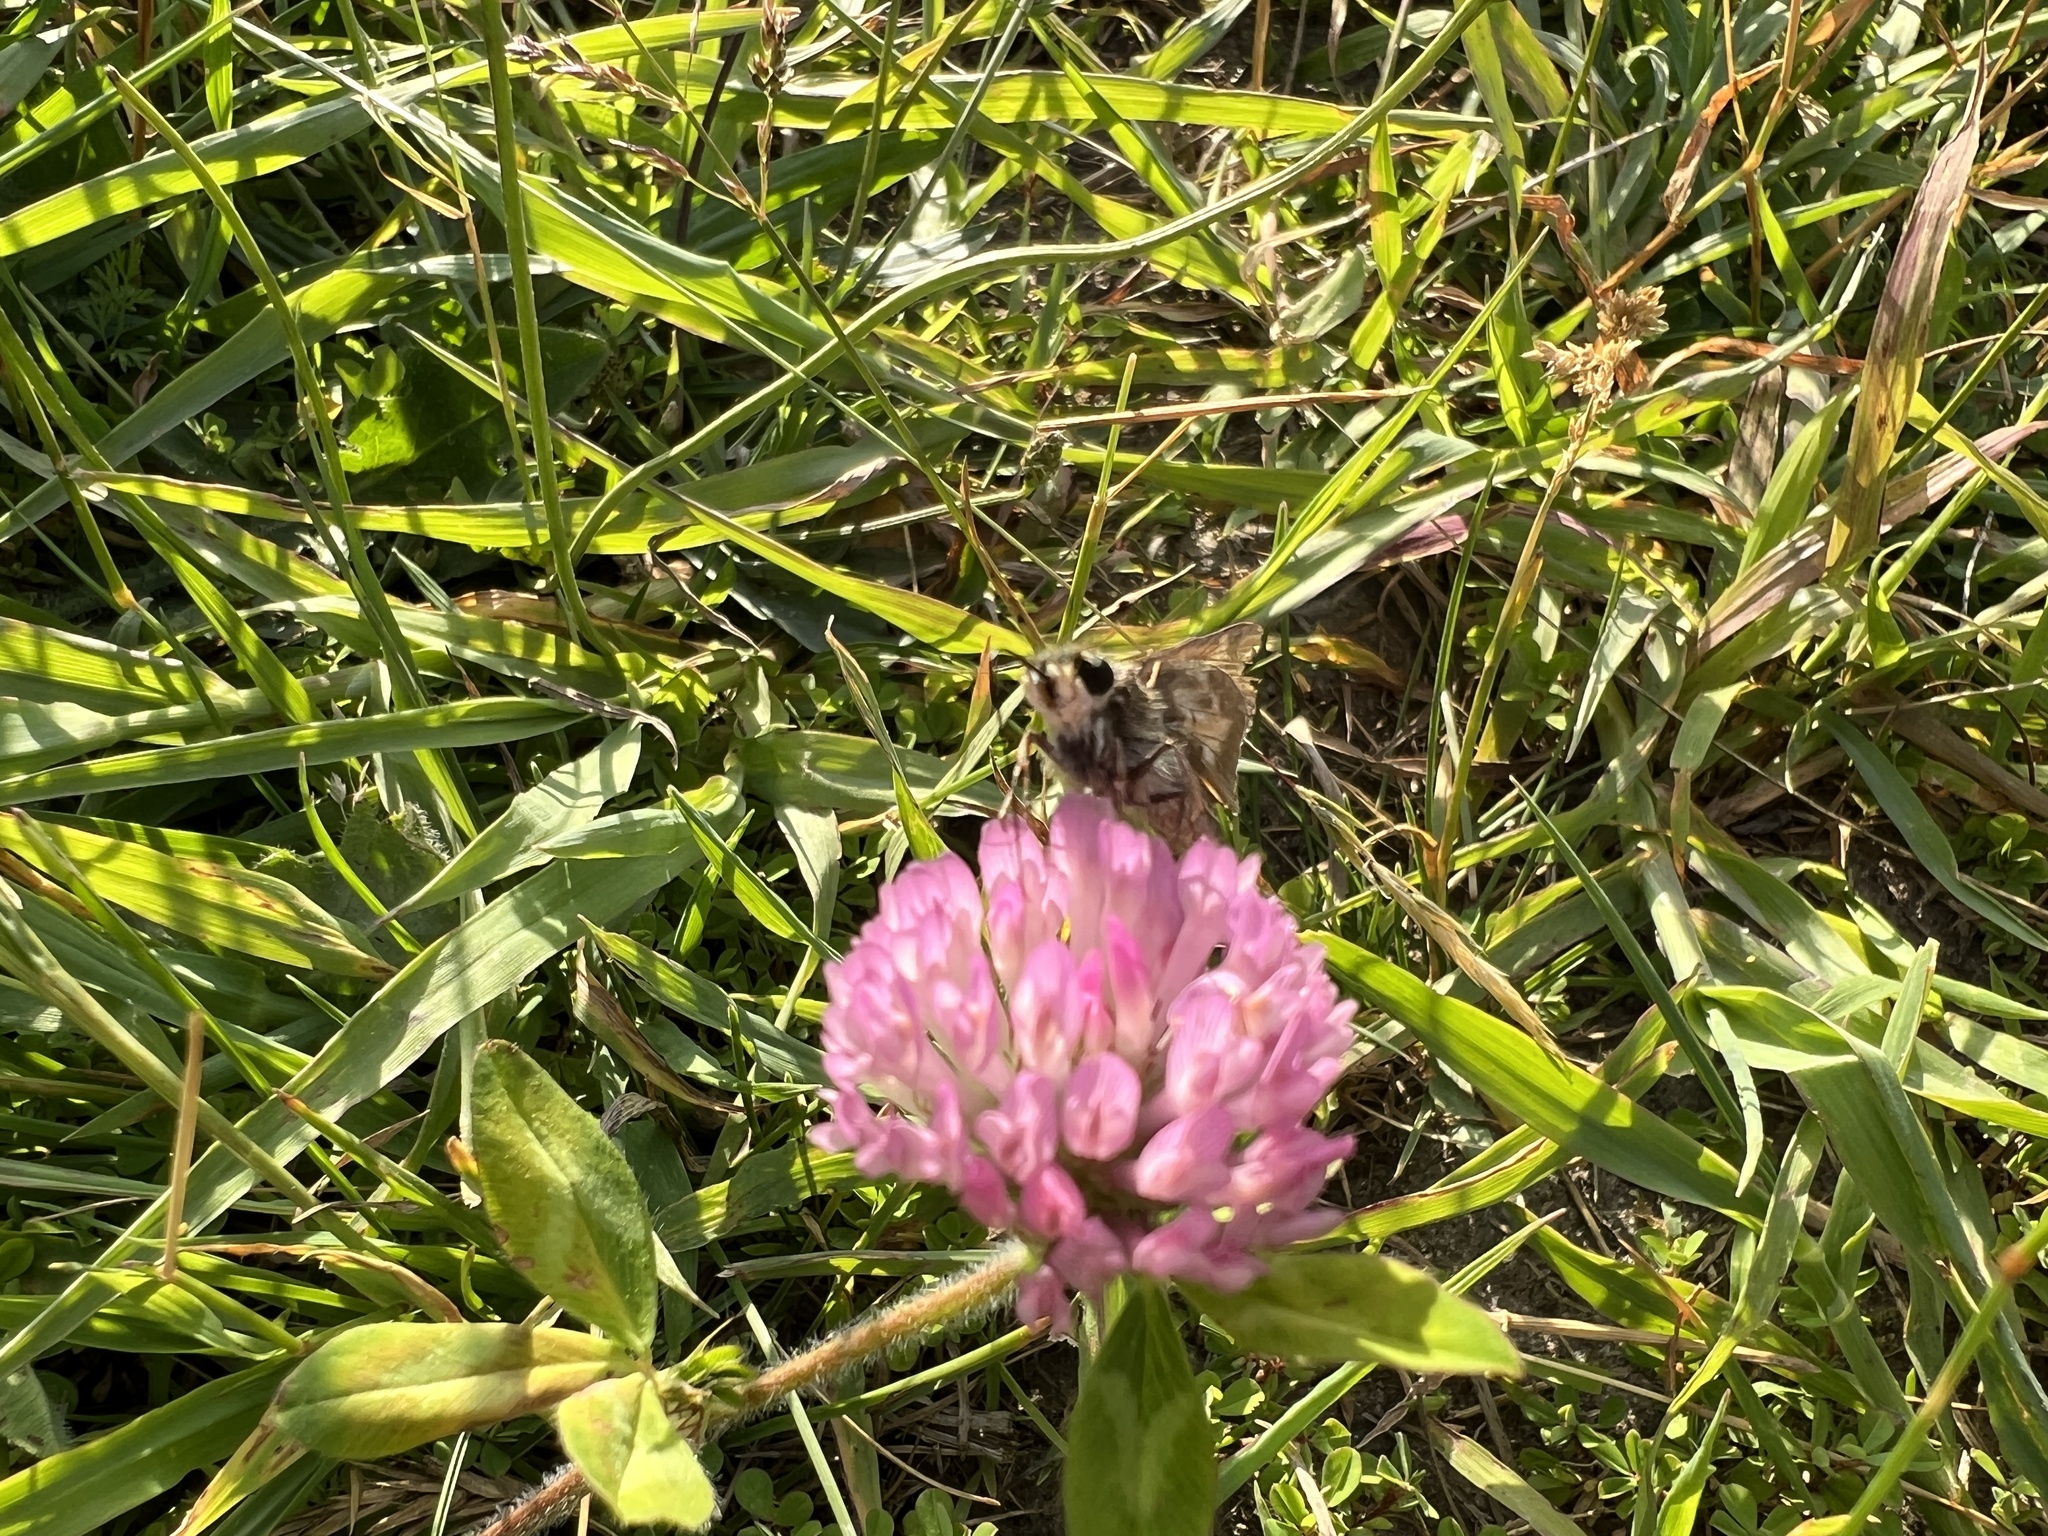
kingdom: Plantae
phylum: Tracheophyta
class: Magnoliopsida
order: Fabales
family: Fabaceae
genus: Trifolium
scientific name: Trifolium pratense
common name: Red clover
